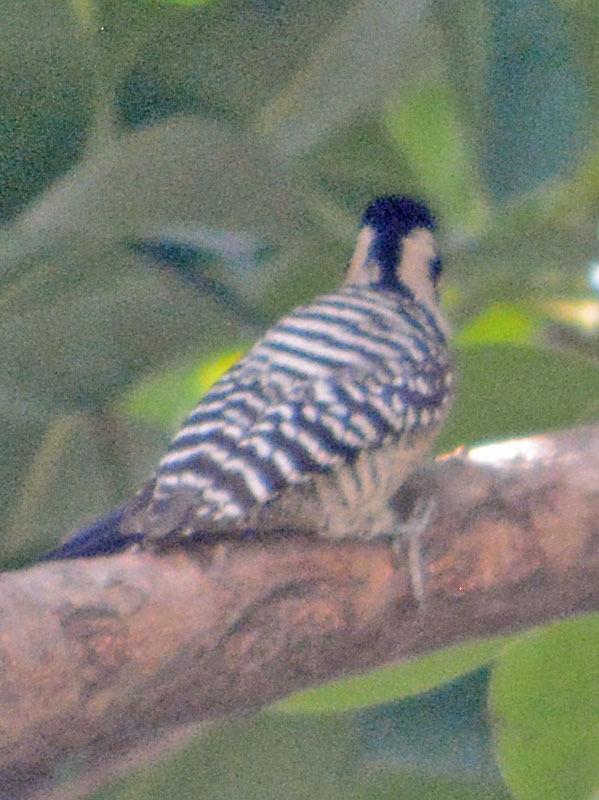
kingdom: Animalia
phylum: Chordata
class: Aves
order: Piciformes
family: Picidae
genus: Dryobates
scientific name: Dryobates scalaris
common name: Ladder-backed woodpecker
